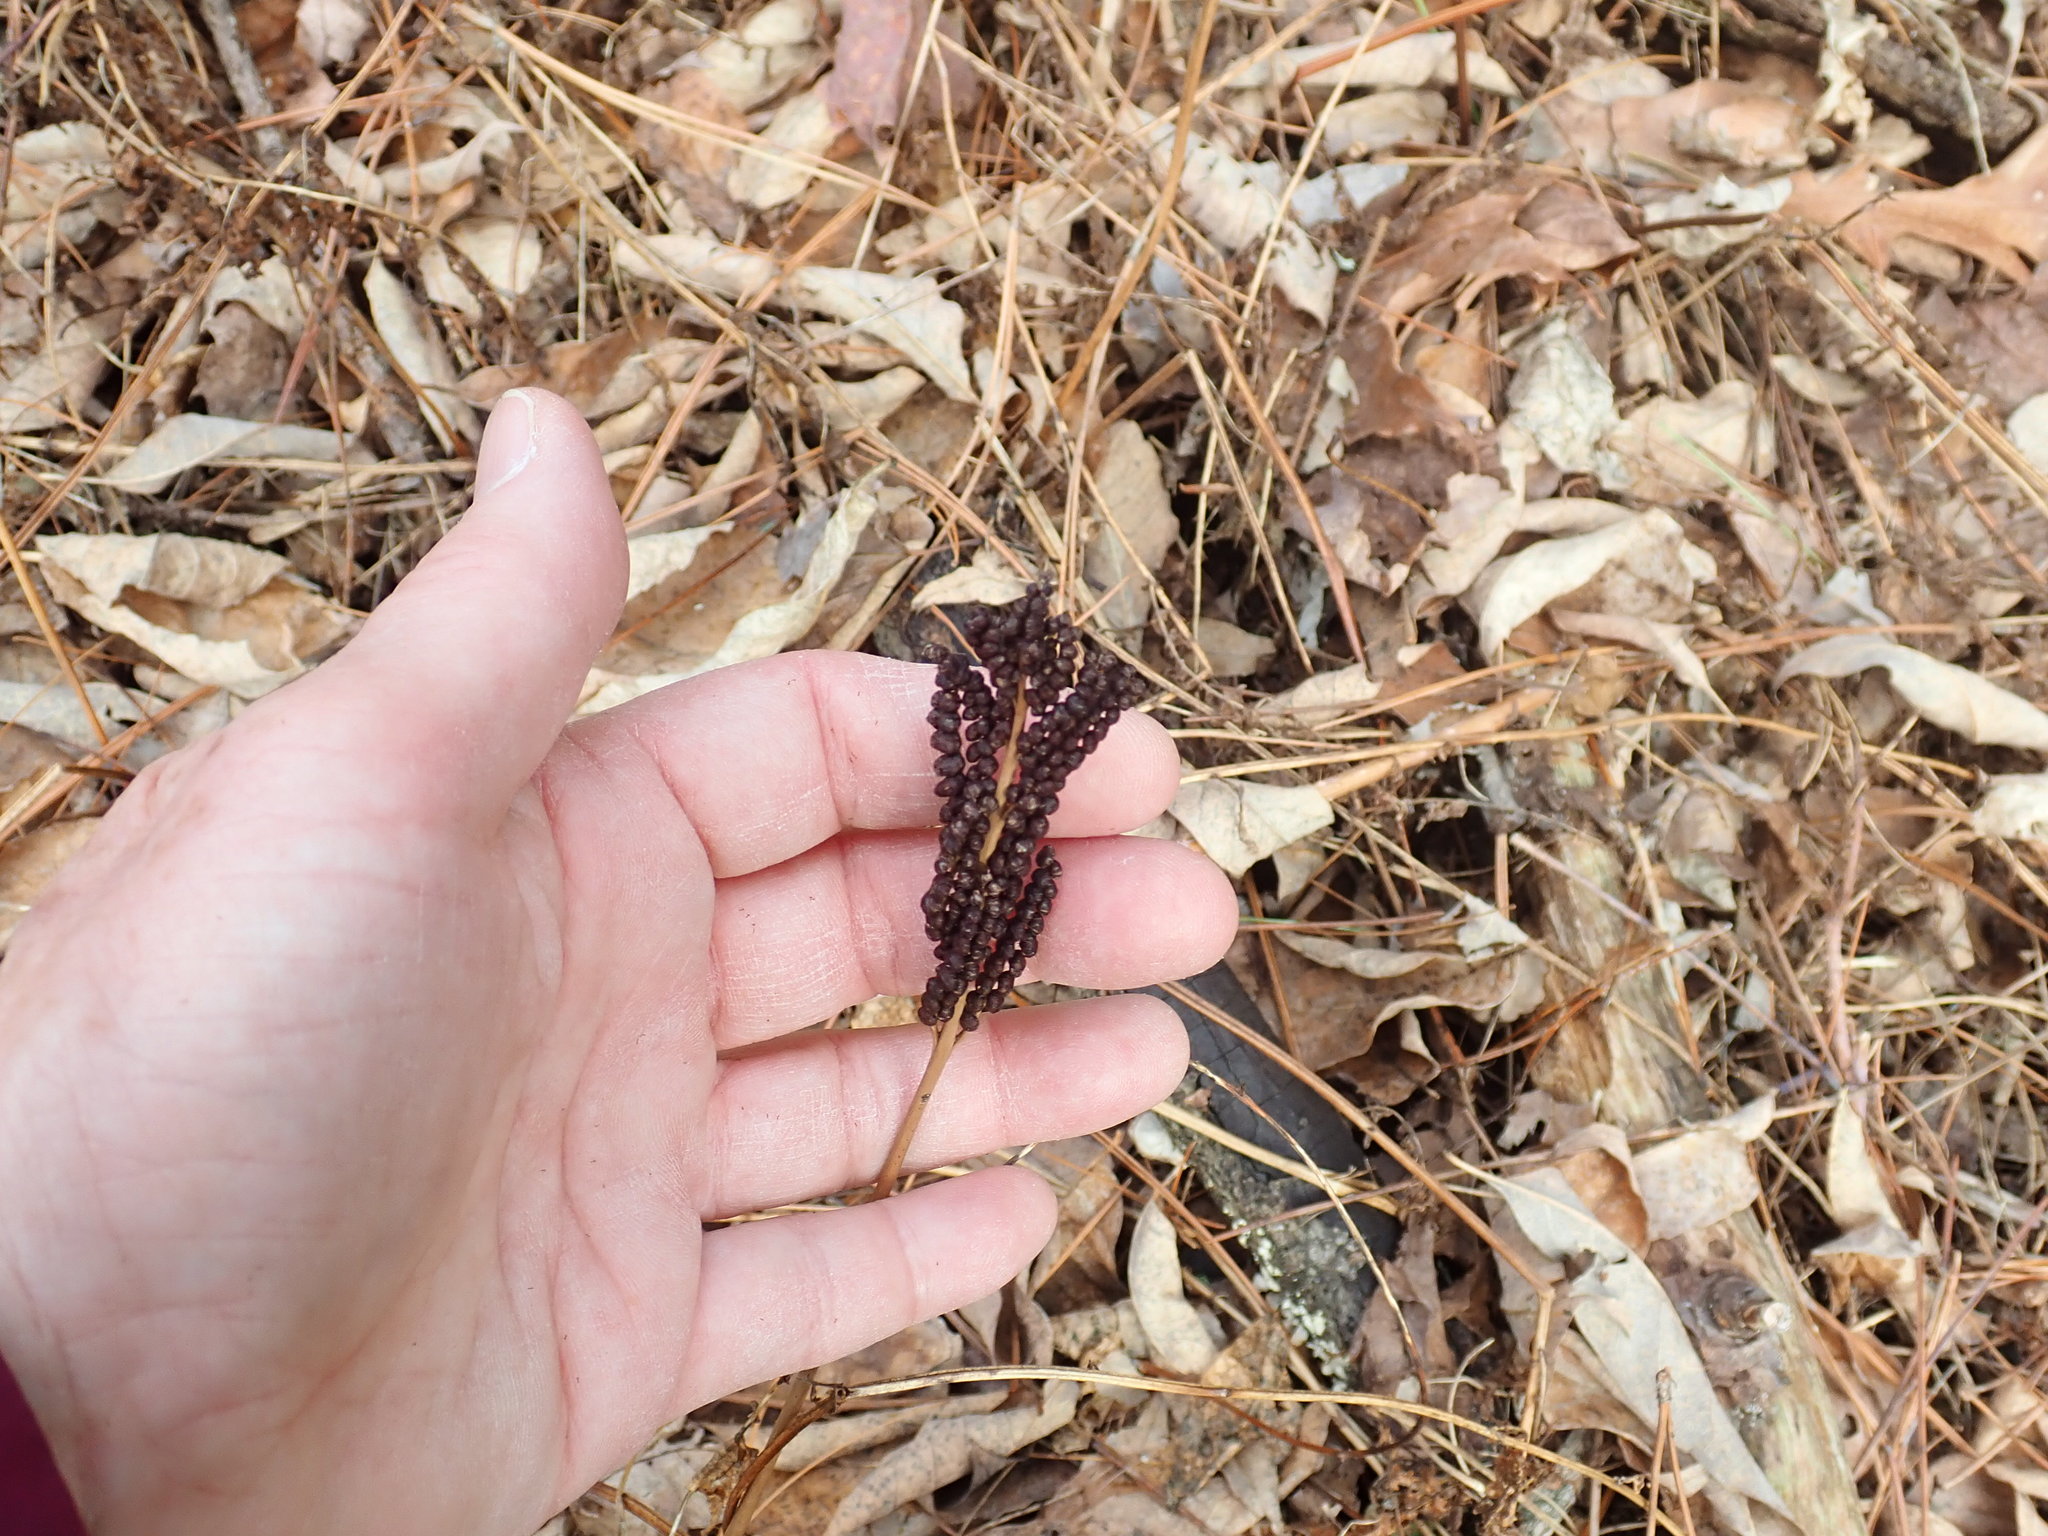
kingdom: Plantae
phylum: Tracheophyta
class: Polypodiopsida
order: Polypodiales
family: Onocleaceae
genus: Onoclea
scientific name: Onoclea sensibilis
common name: Sensitive fern
